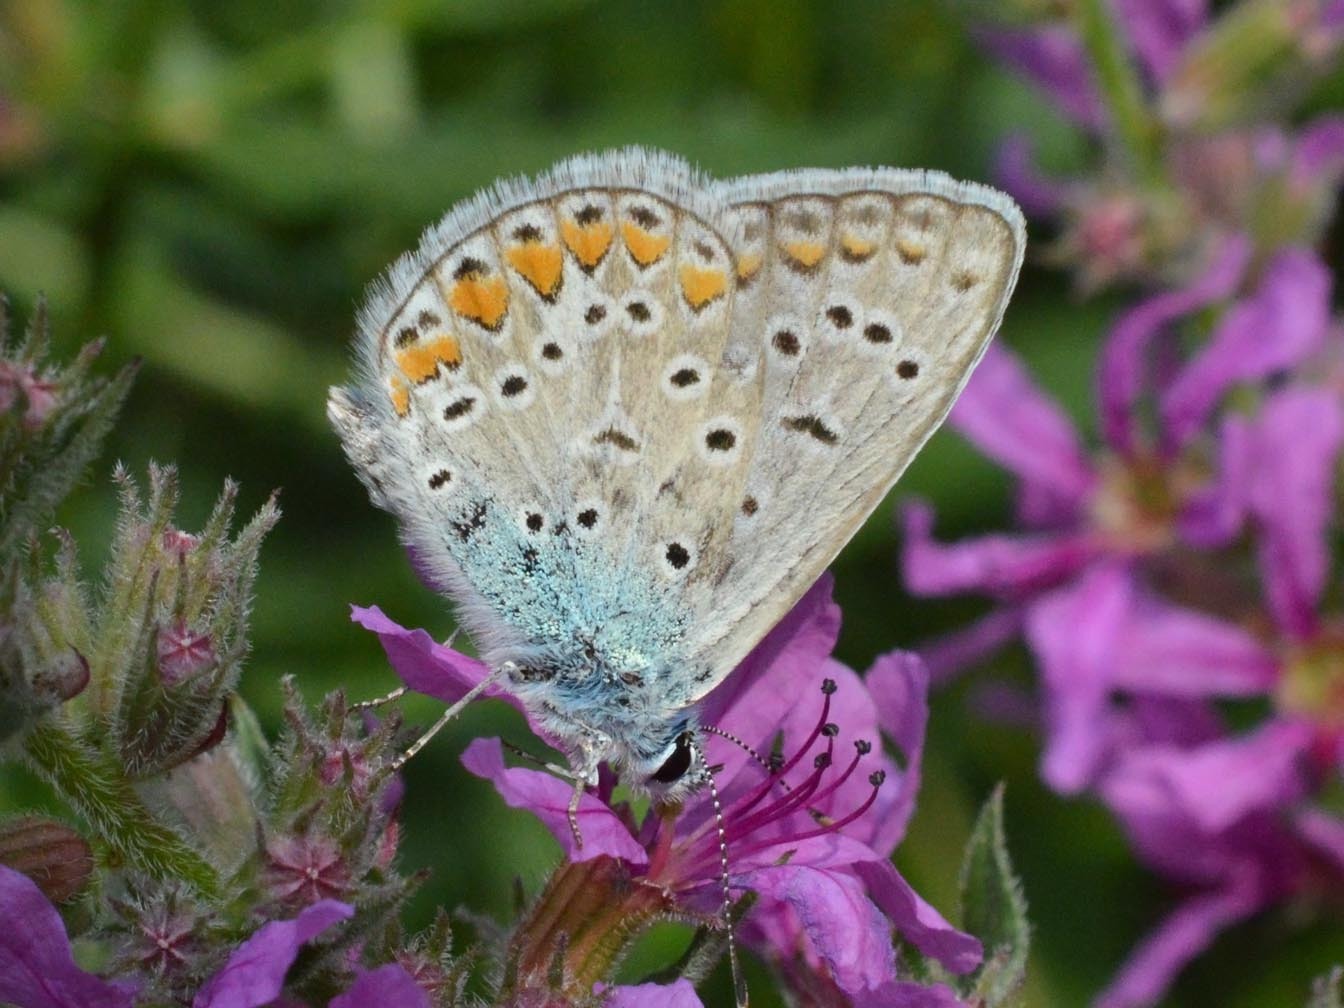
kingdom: Animalia
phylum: Arthropoda
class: Insecta
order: Lepidoptera
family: Lycaenidae
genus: Polyommatus
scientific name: Polyommatus icarus
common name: Common blue
